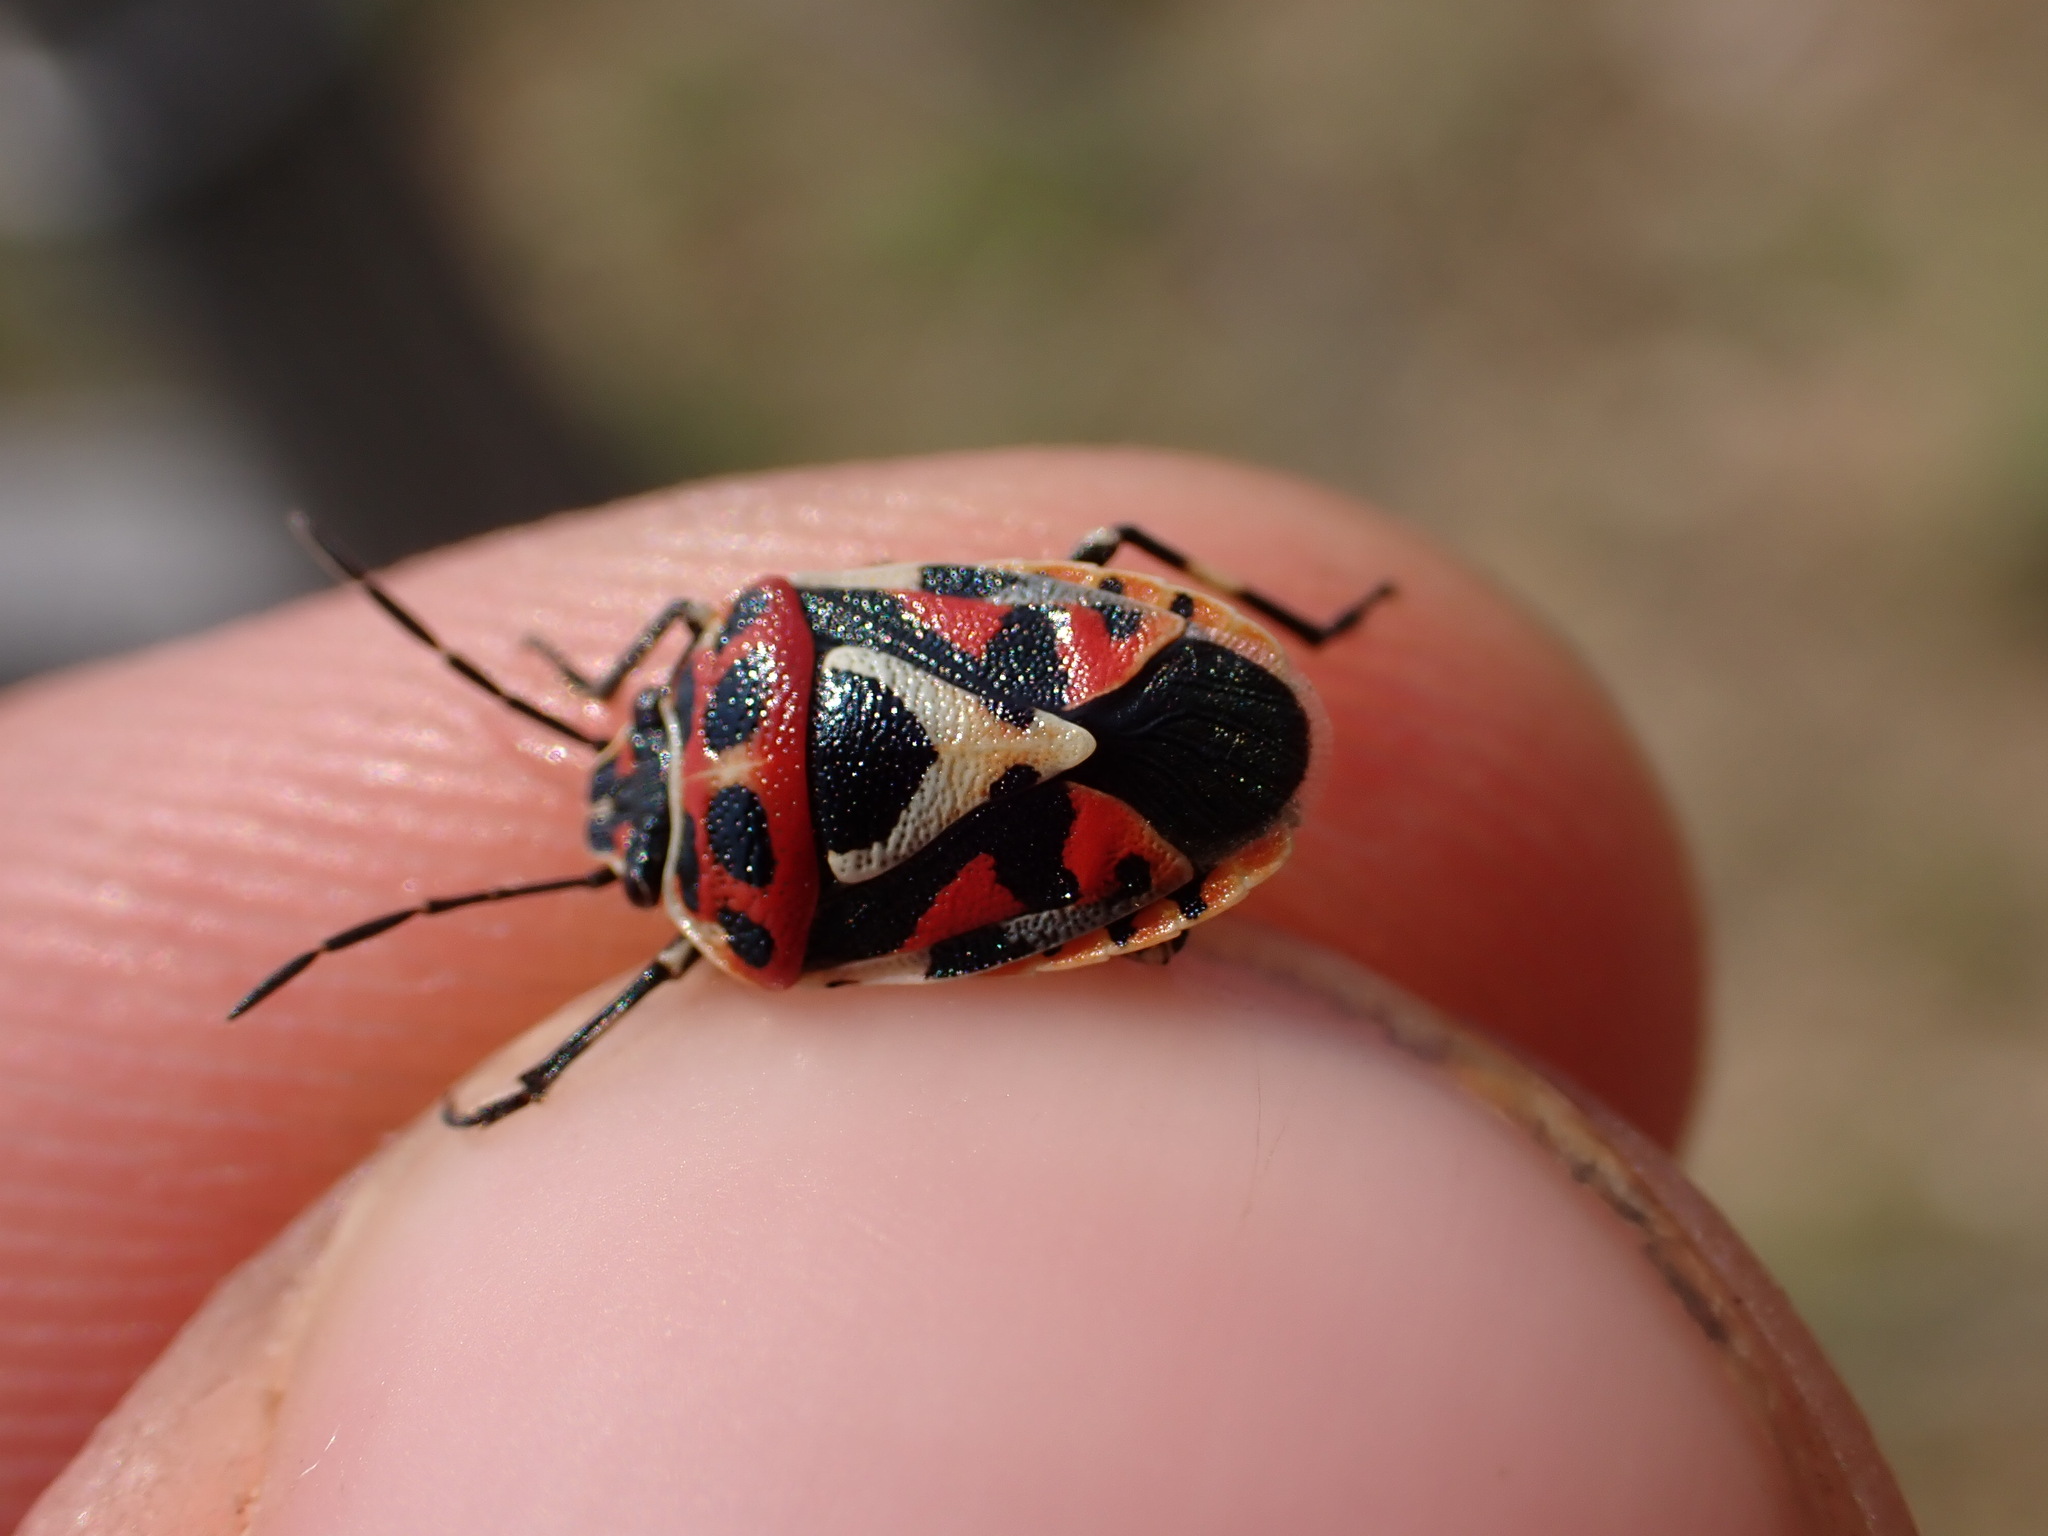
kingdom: Animalia
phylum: Arthropoda
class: Insecta
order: Hemiptera
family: Pentatomidae
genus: Eurydema
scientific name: Eurydema ornata
